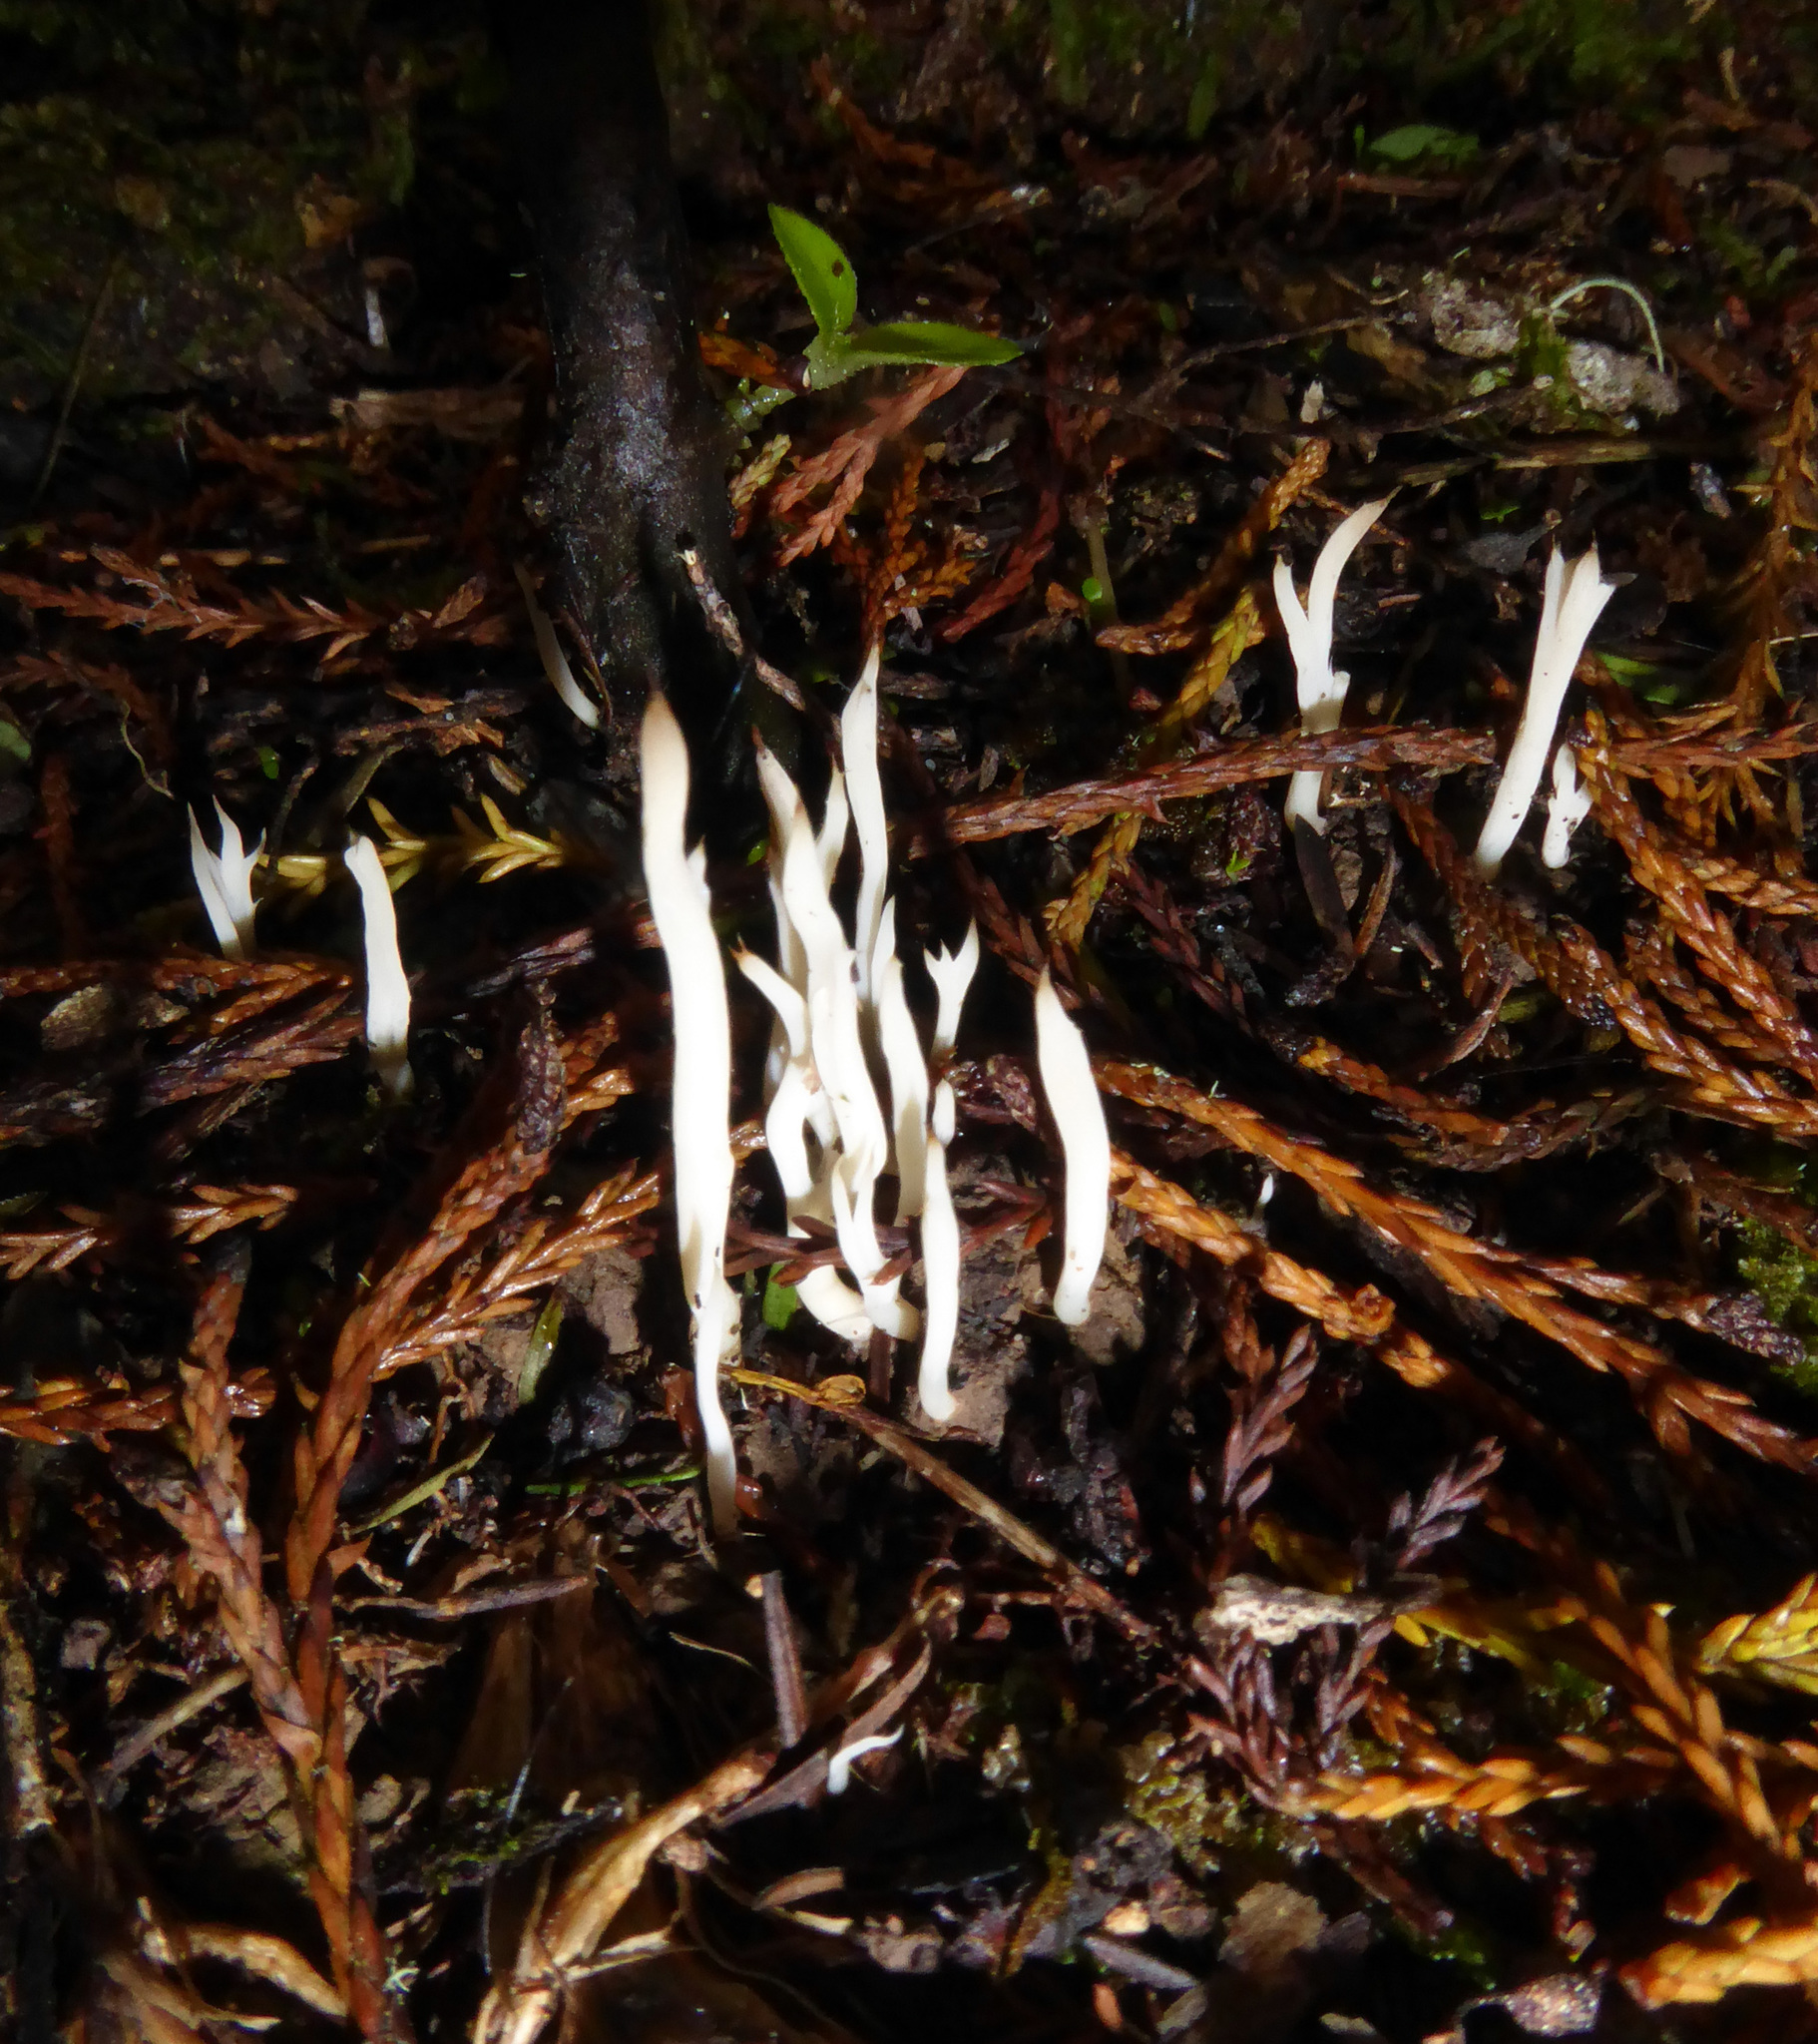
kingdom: Fungi
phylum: Basidiomycota
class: Agaricomycetes
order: Cantharellales
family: Hydnaceae
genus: Clavulina
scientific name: Clavulina subrugosa
